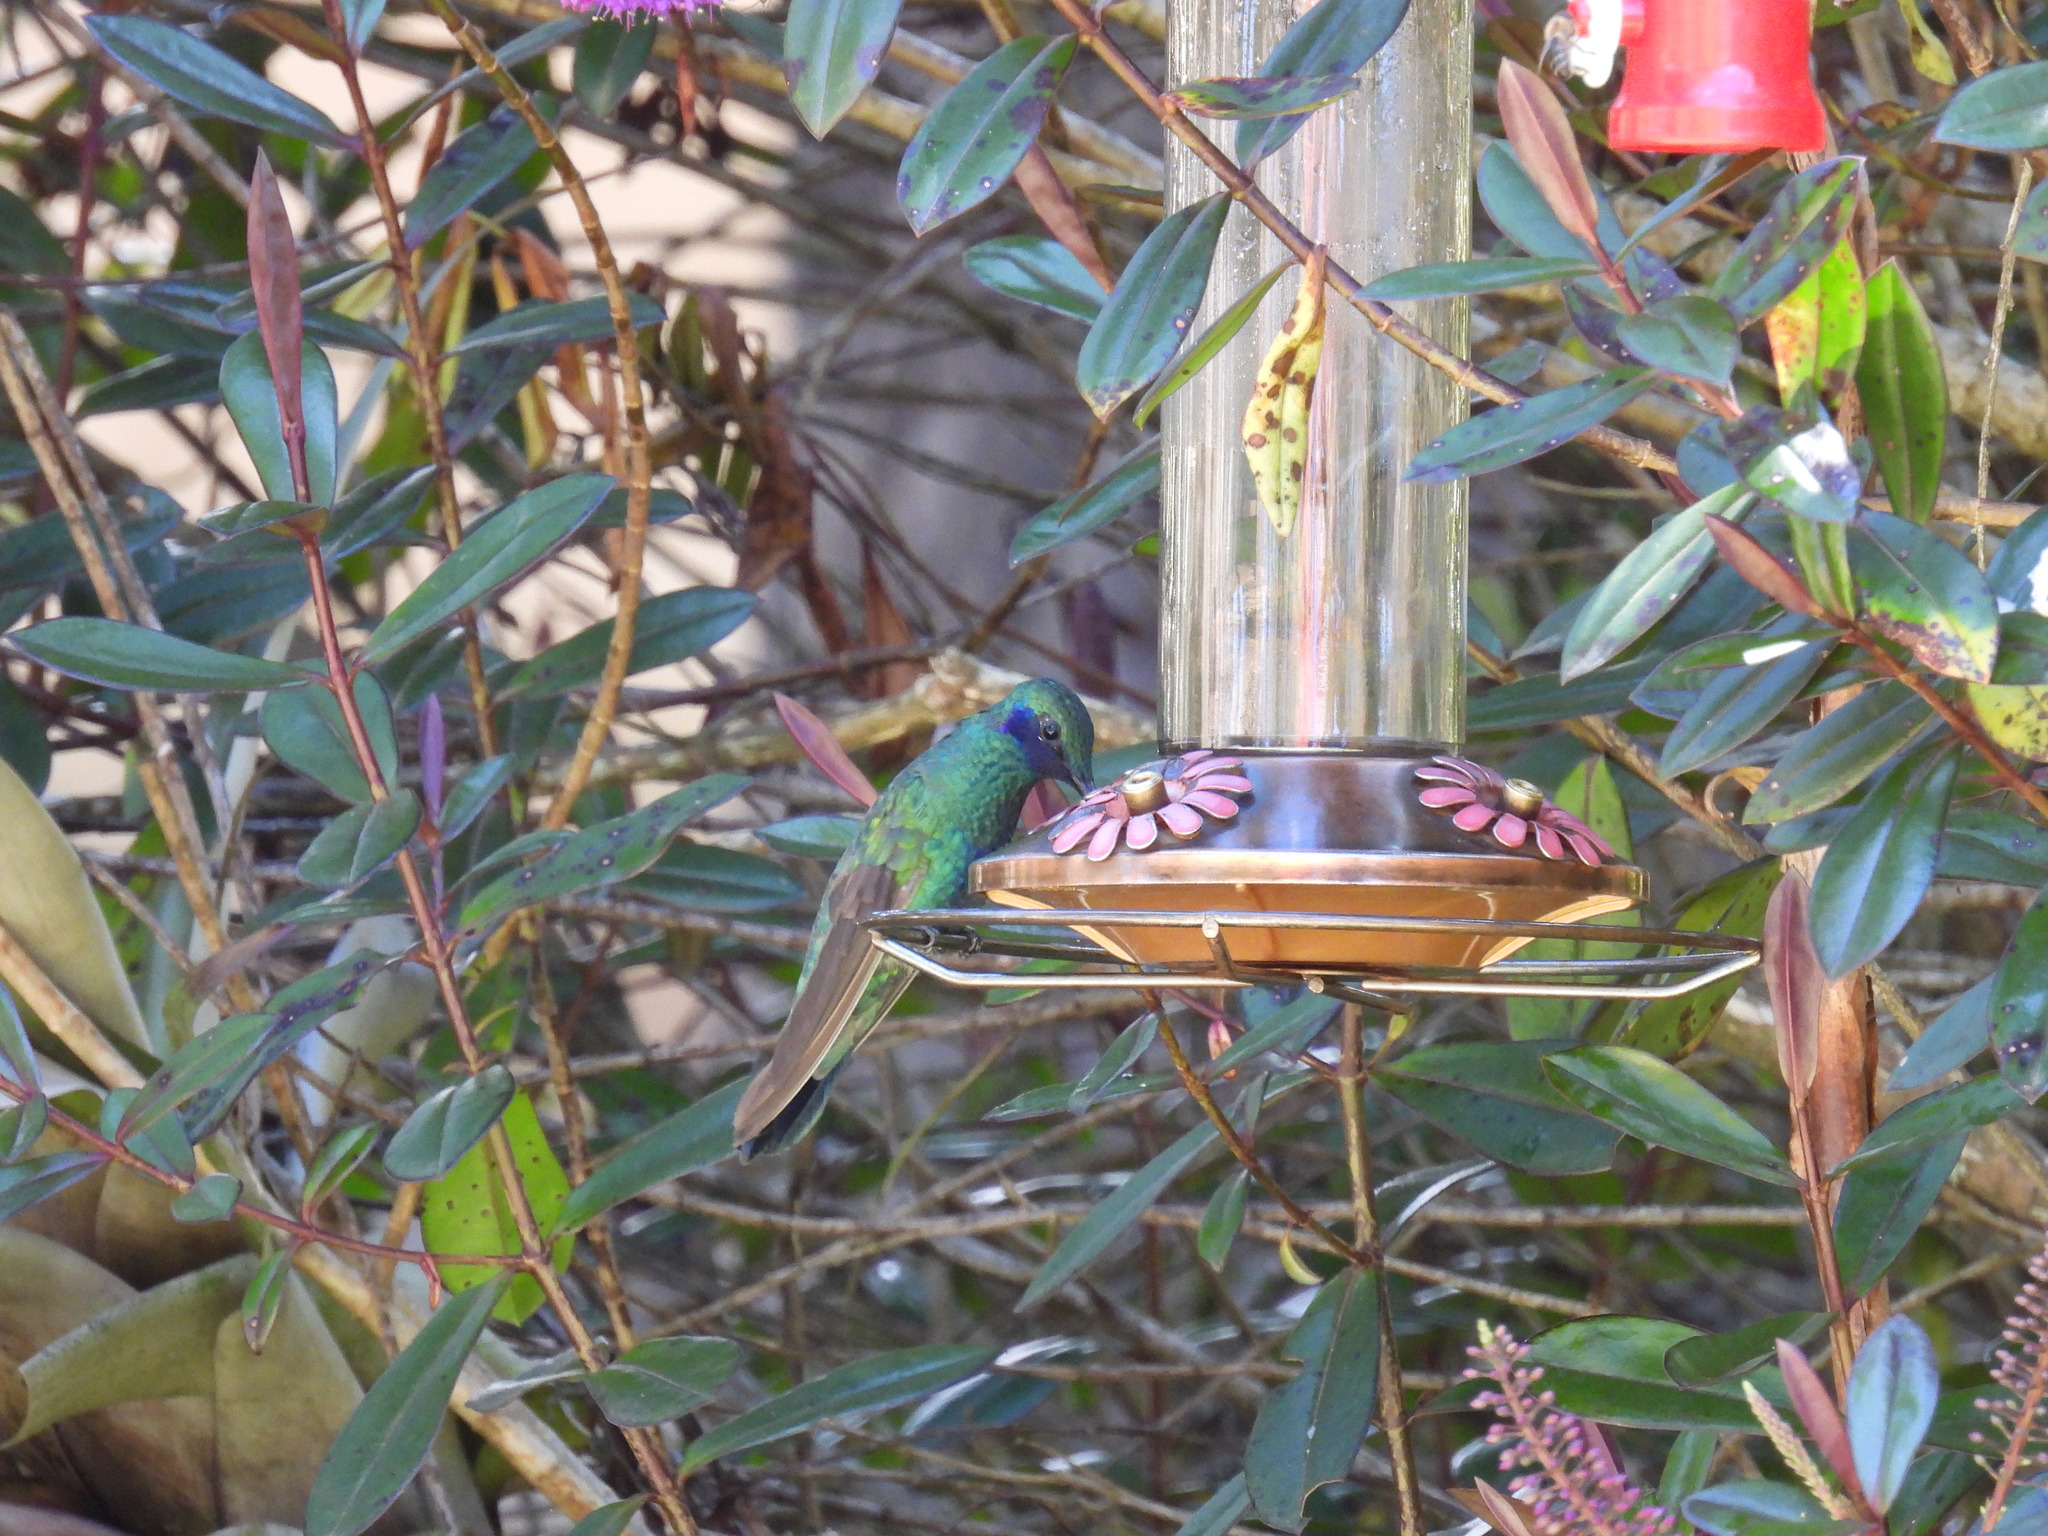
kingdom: Animalia
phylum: Chordata
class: Aves
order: Apodiformes
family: Trochilidae
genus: Colibri
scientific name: Colibri coruscans
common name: Sparkling violetear
